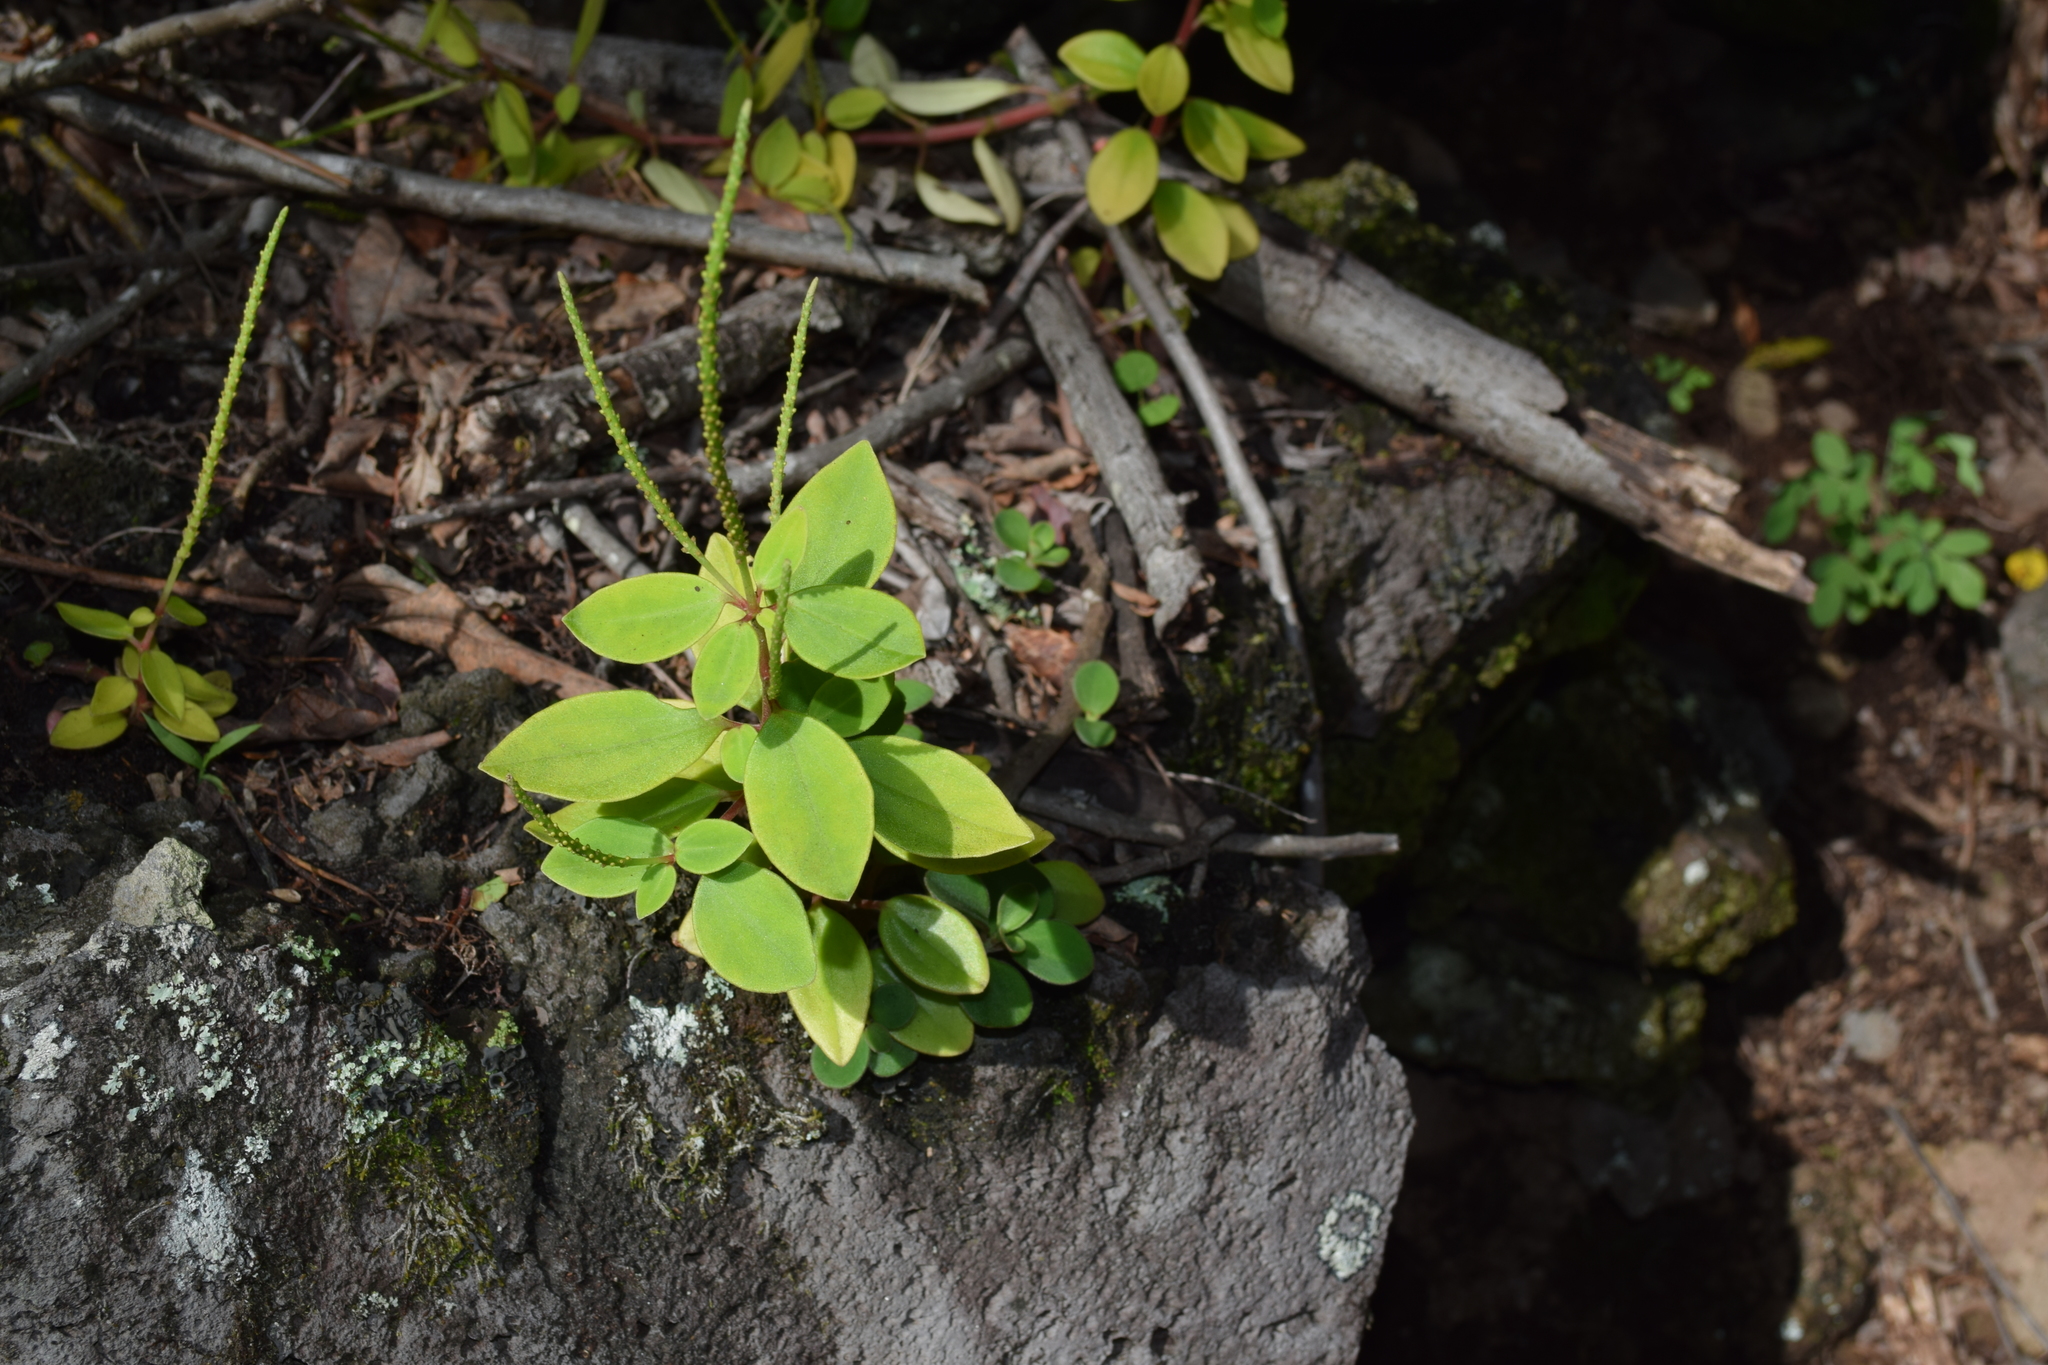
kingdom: Plantae
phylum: Tracheophyta
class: Magnoliopsida
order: Piperales
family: Piperaceae
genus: Peperomia
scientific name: Peperomia leptostachya
